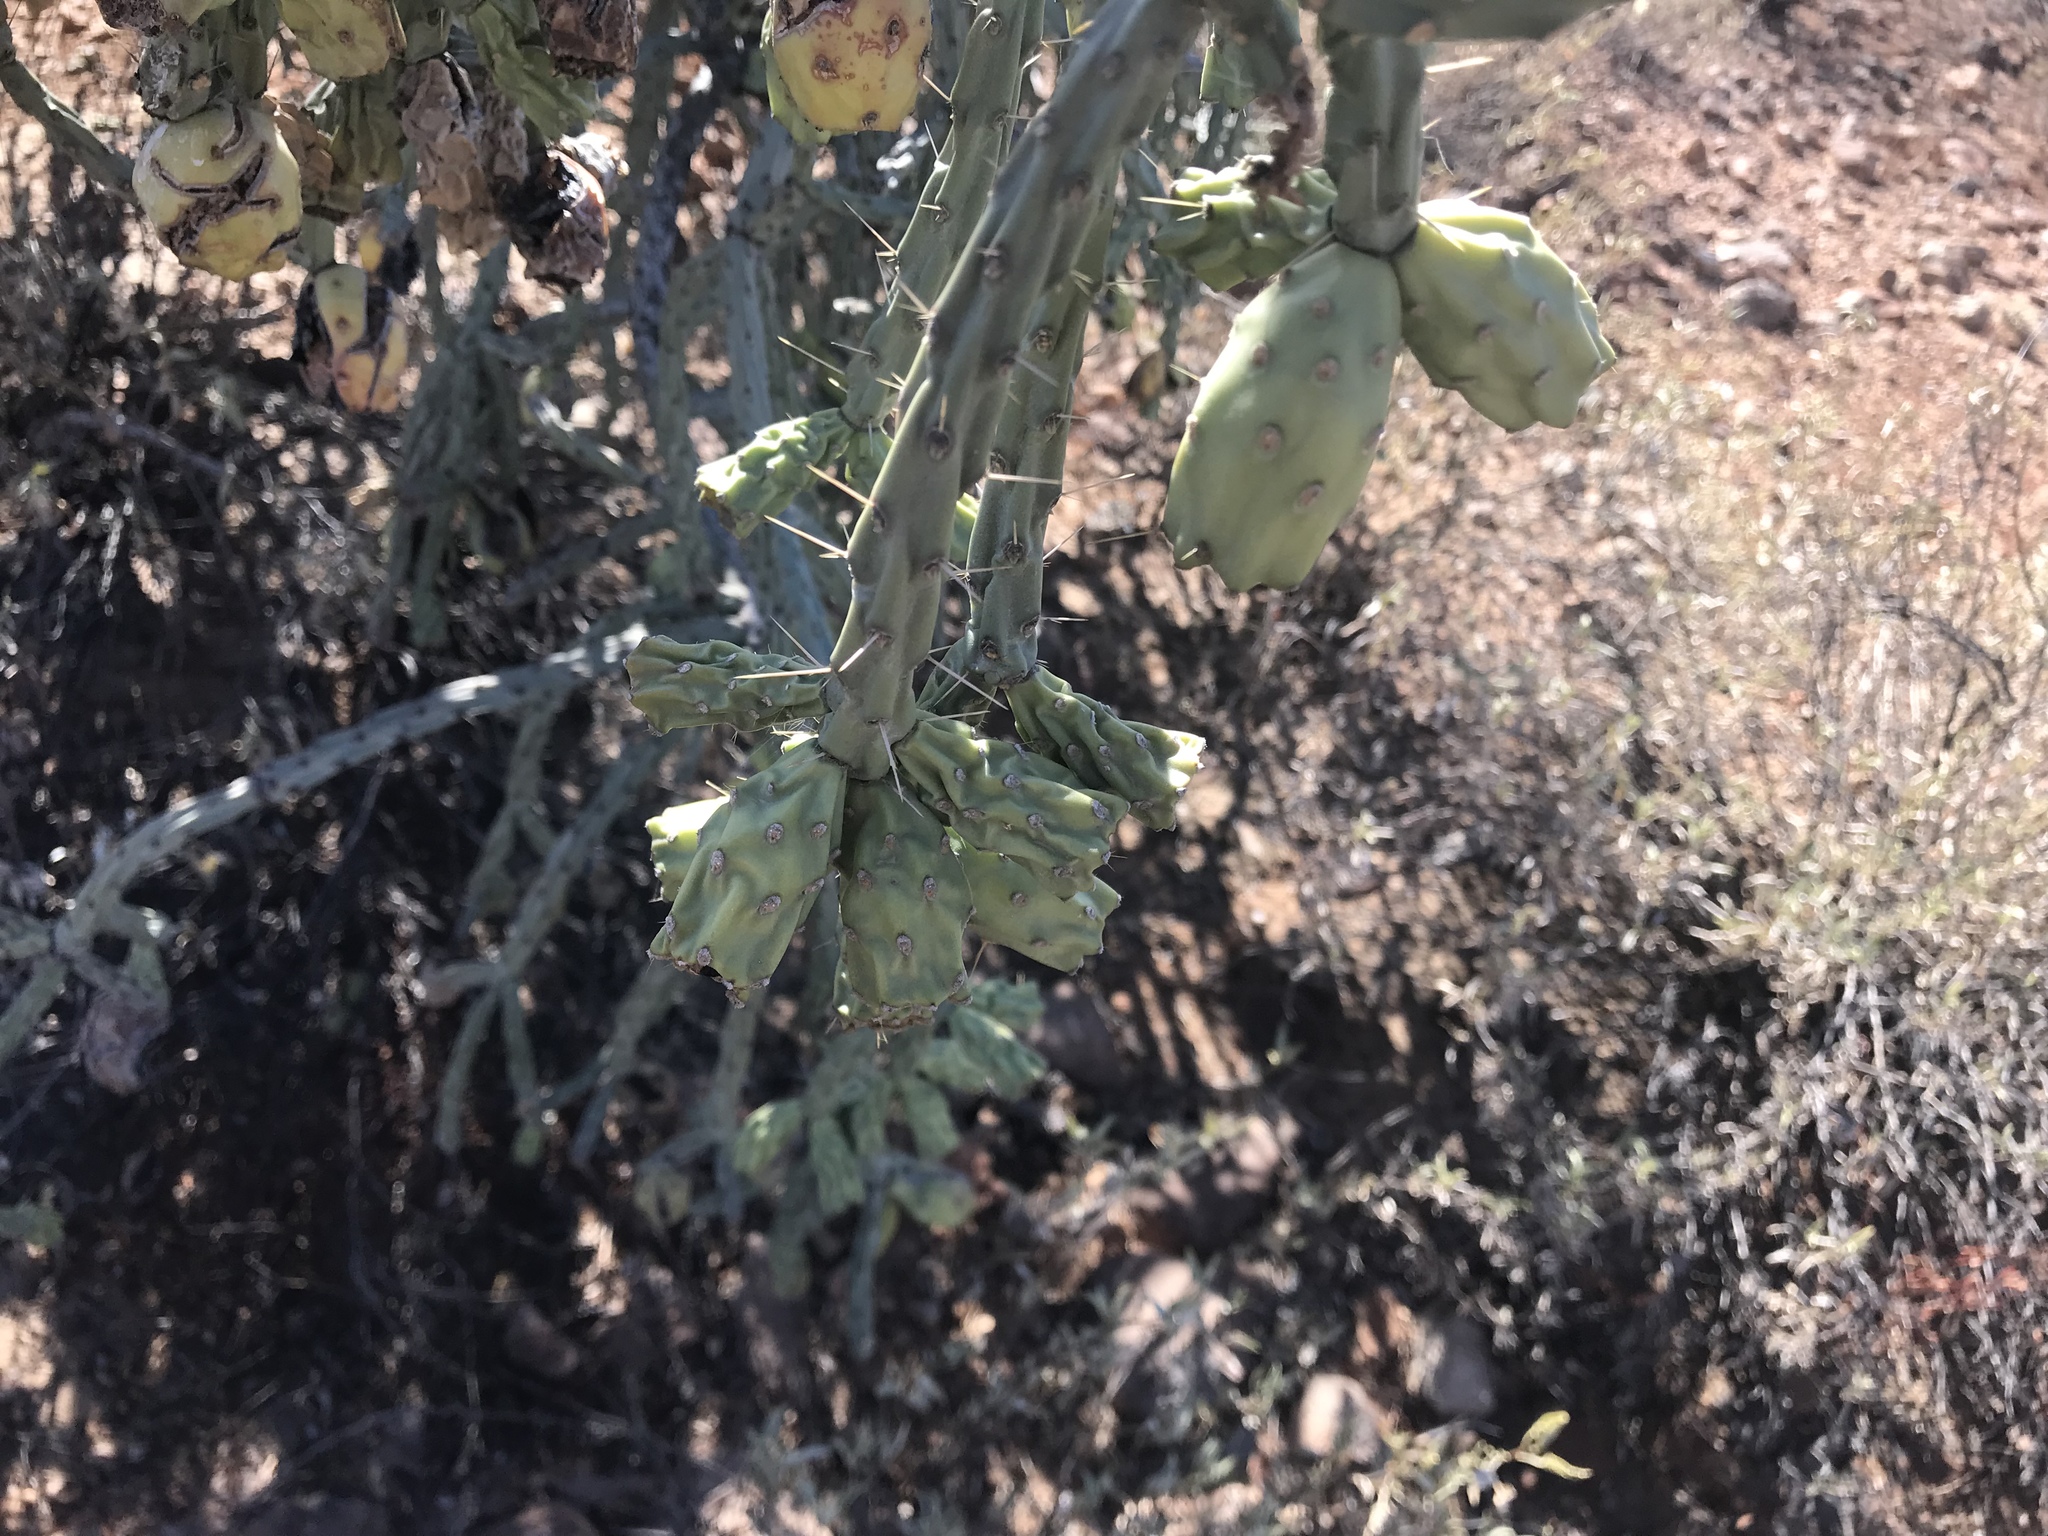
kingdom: Plantae
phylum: Tracheophyta
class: Magnoliopsida
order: Caryophyllales
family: Cactaceae
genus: Cylindropuntia
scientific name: Cylindropuntia arbuscula
